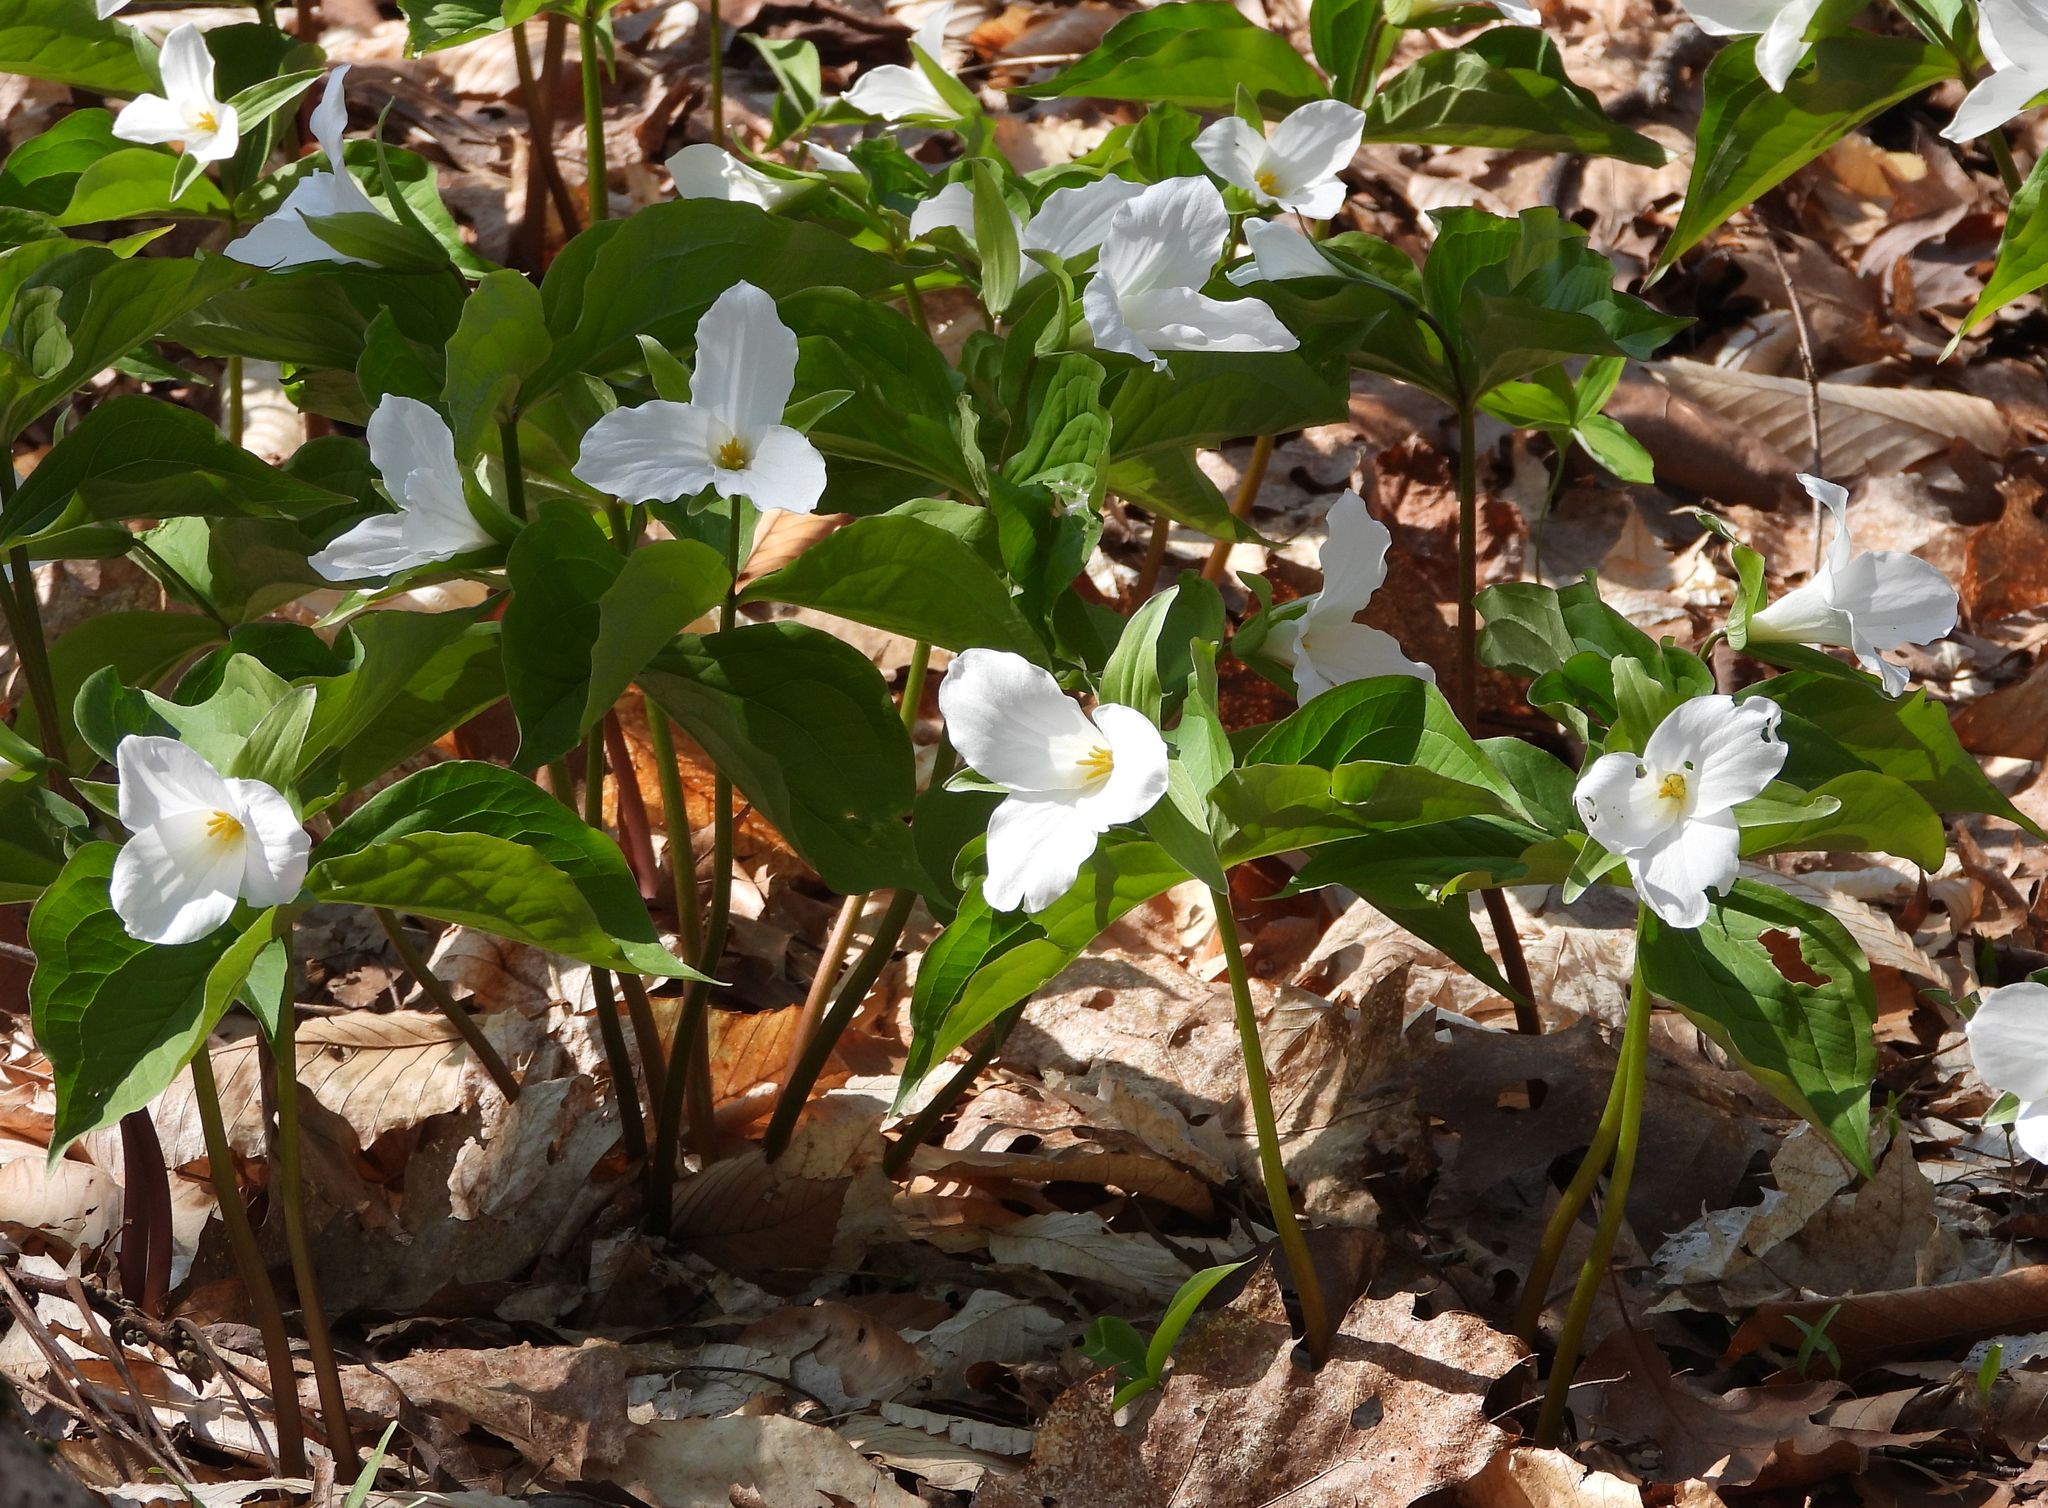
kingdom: Plantae
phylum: Tracheophyta
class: Liliopsida
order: Liliales
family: Melanthiaceae
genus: Trillium
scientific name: Trillium grandiflorum
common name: Great white trillium
